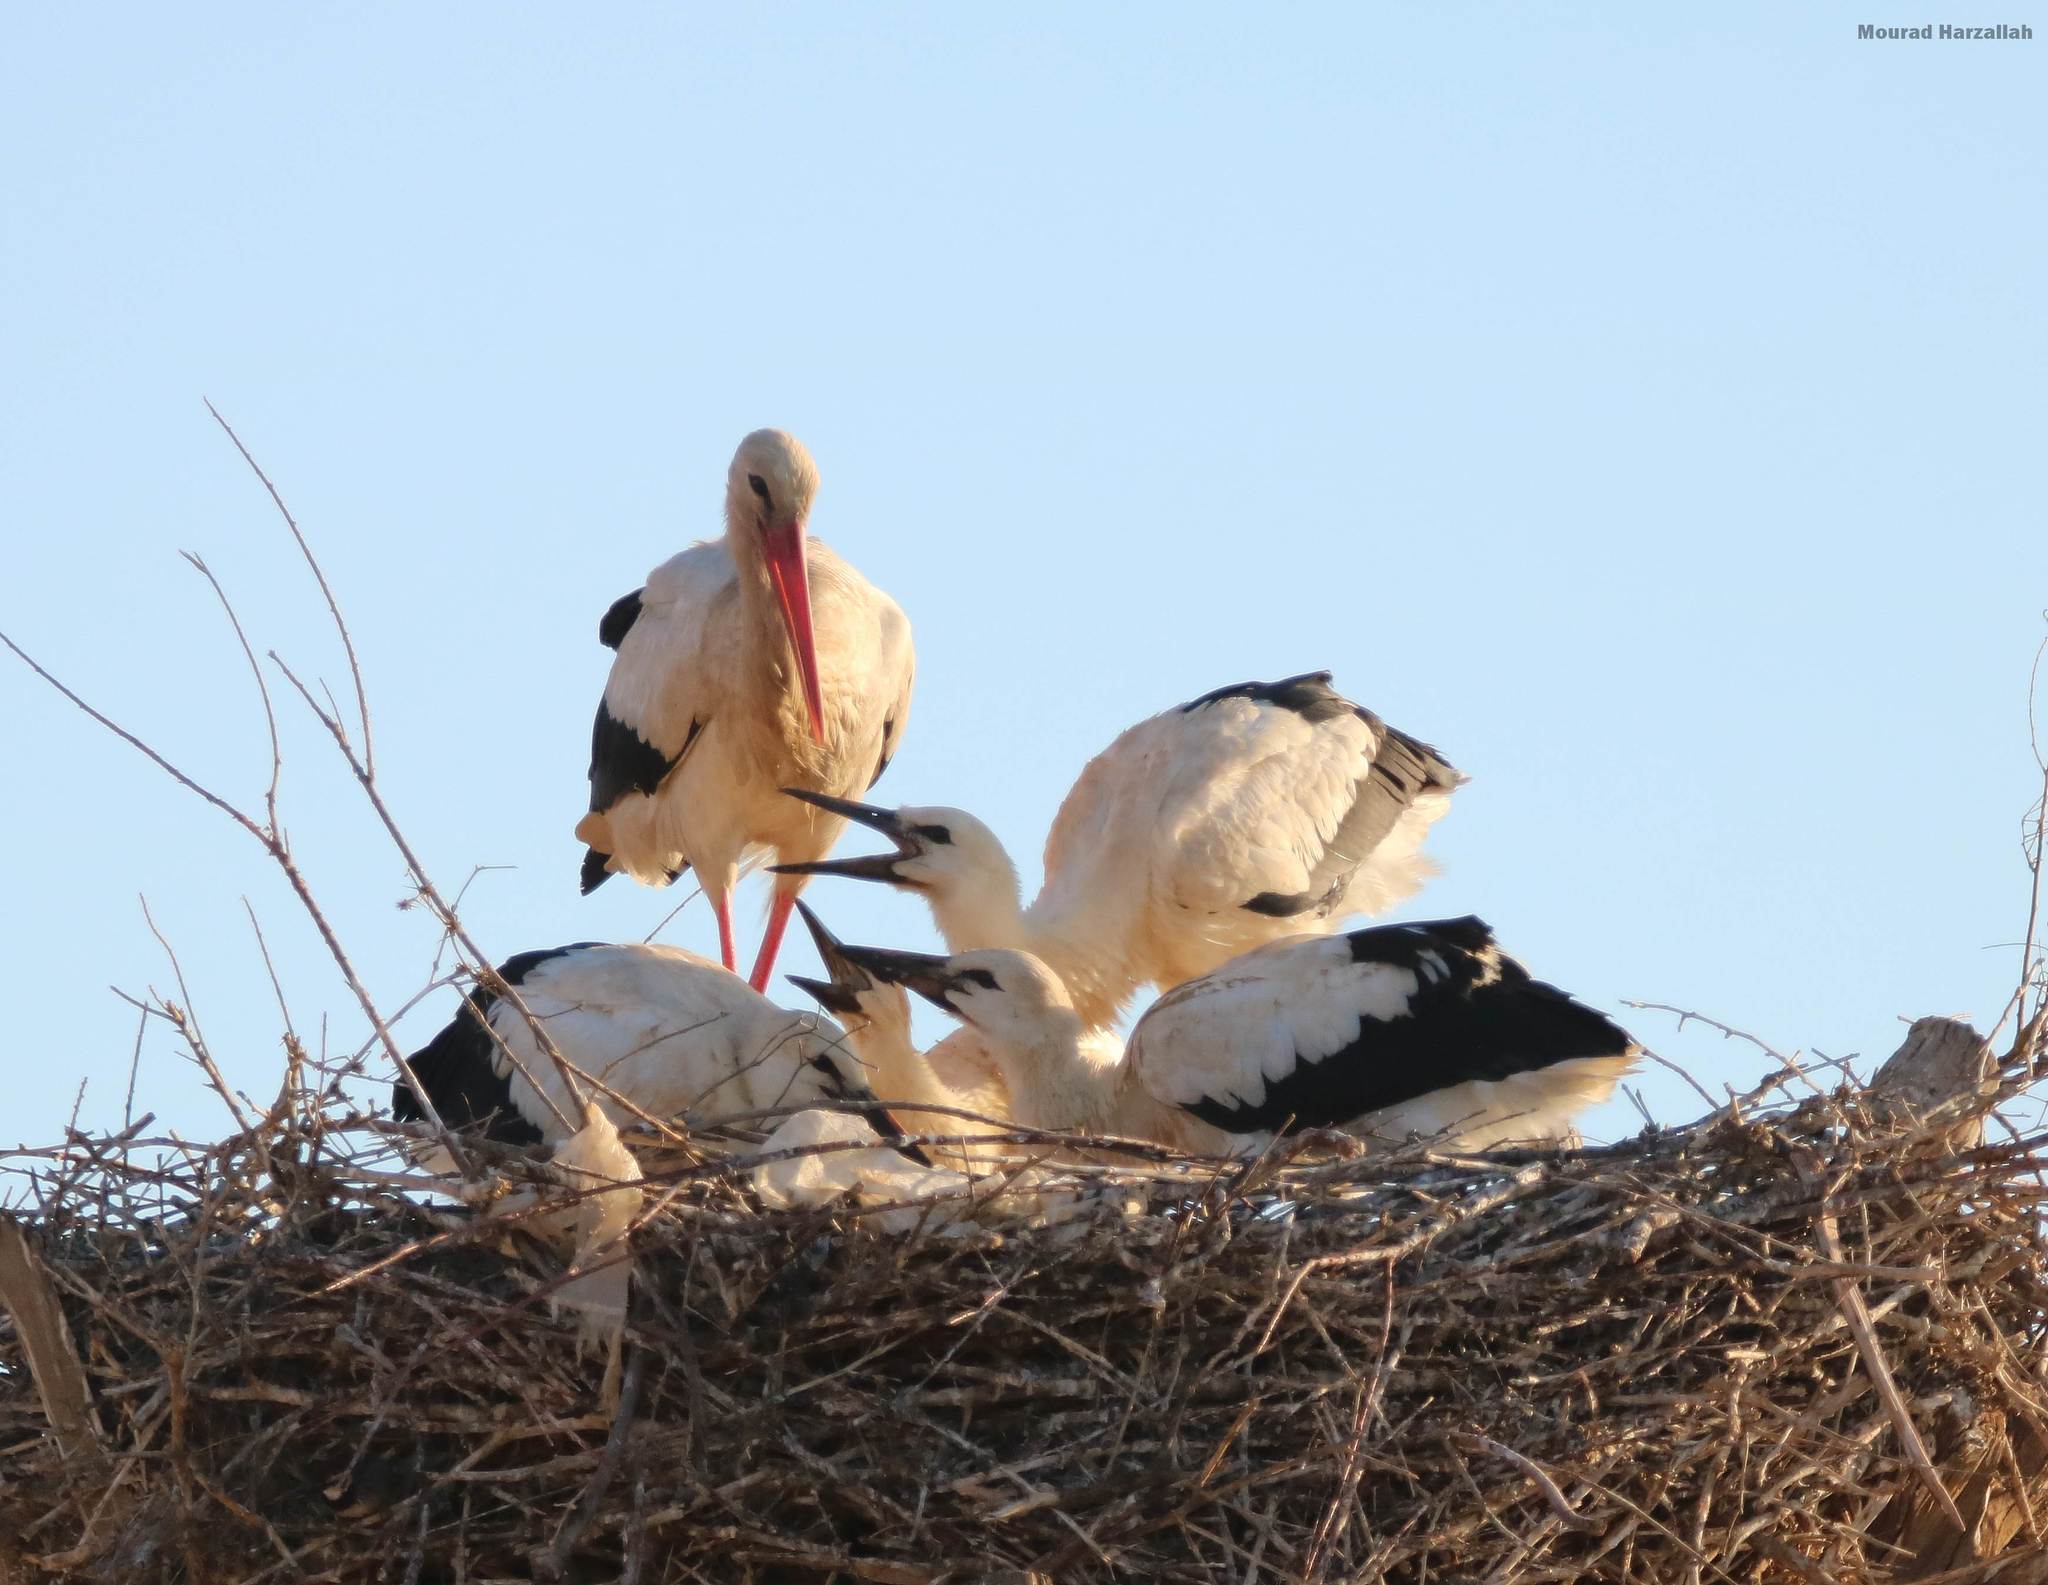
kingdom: Animalia
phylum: Chordata
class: Aves
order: Ciconiiformes
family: Ciconiidae
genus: Ciconia
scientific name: Ciconia ciconia
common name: White stork
